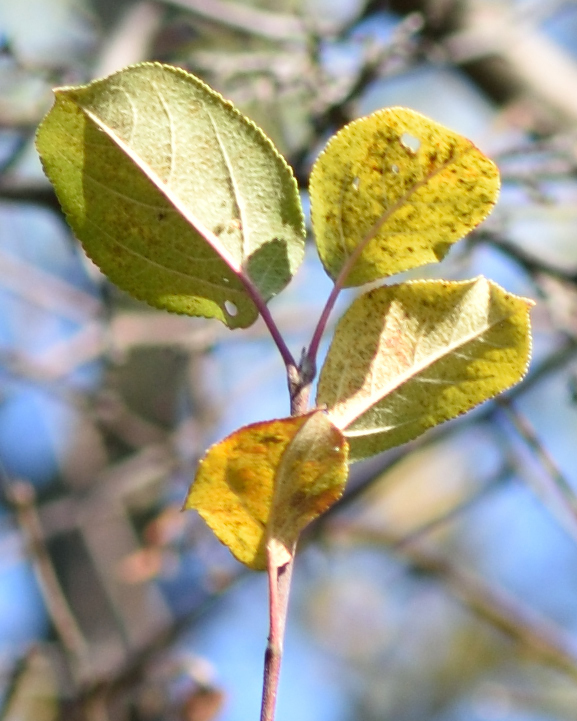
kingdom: Plantae
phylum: Tracheophyta
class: Magnoliopsida
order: Rosales
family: Rosaceae
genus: Malus
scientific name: Malus domestica
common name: Apple
